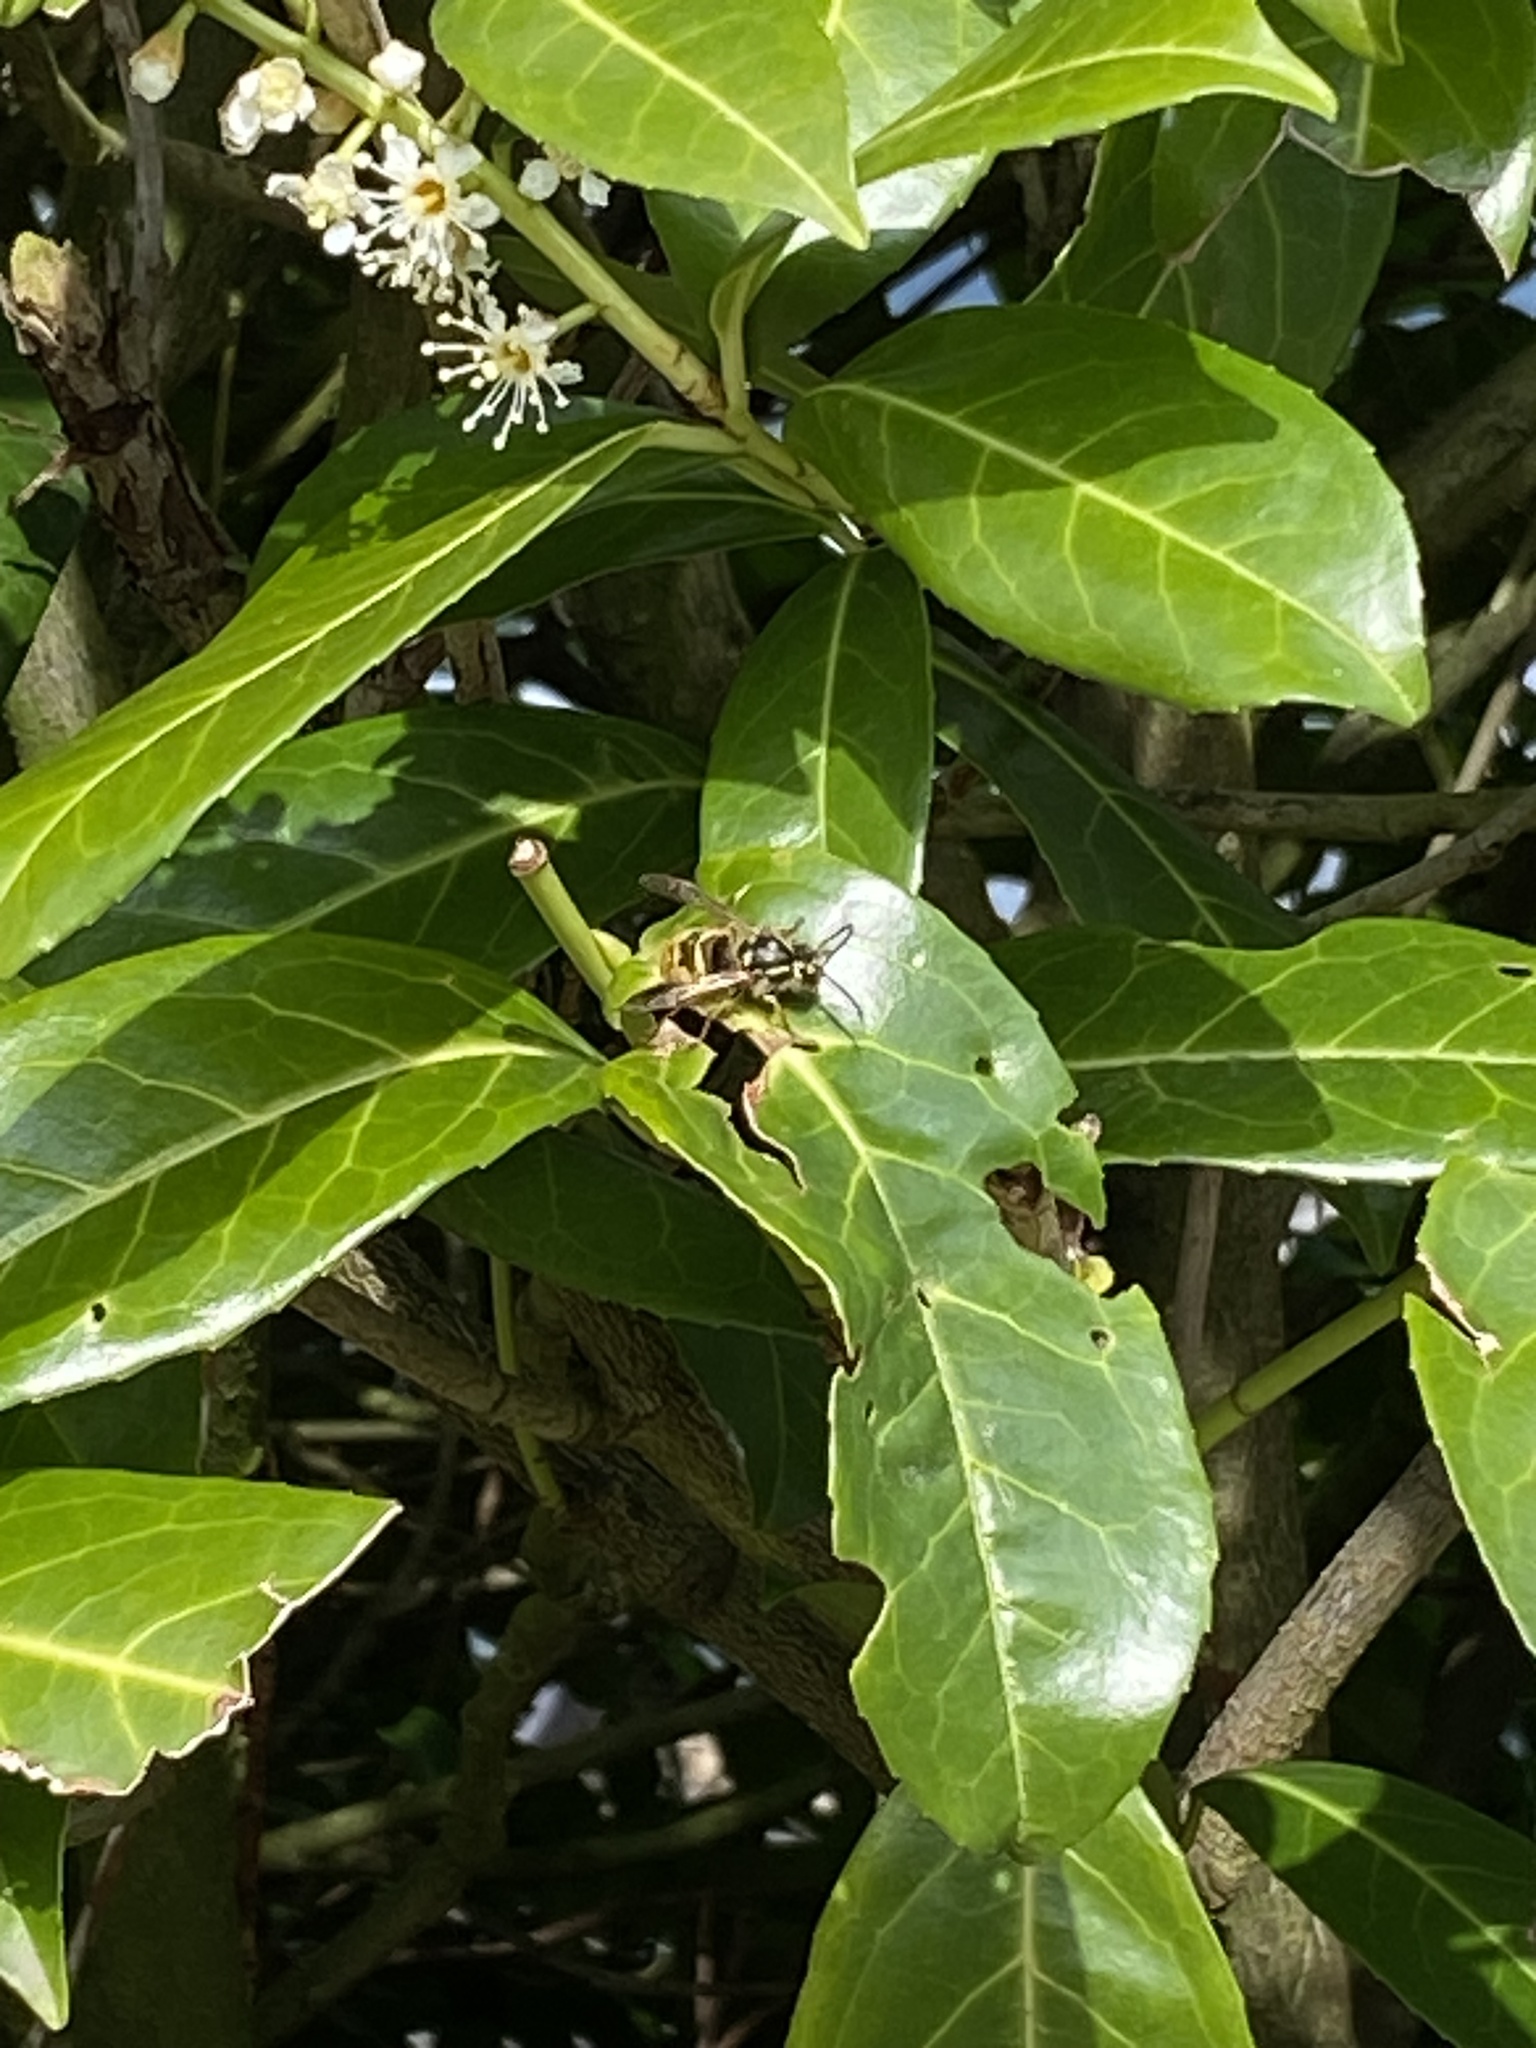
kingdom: Animalia
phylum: Arthropoda
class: Insecta
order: Hymenoptera
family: Vespidae
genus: Vespula
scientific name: Vespula vulgaris
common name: Common wasp
